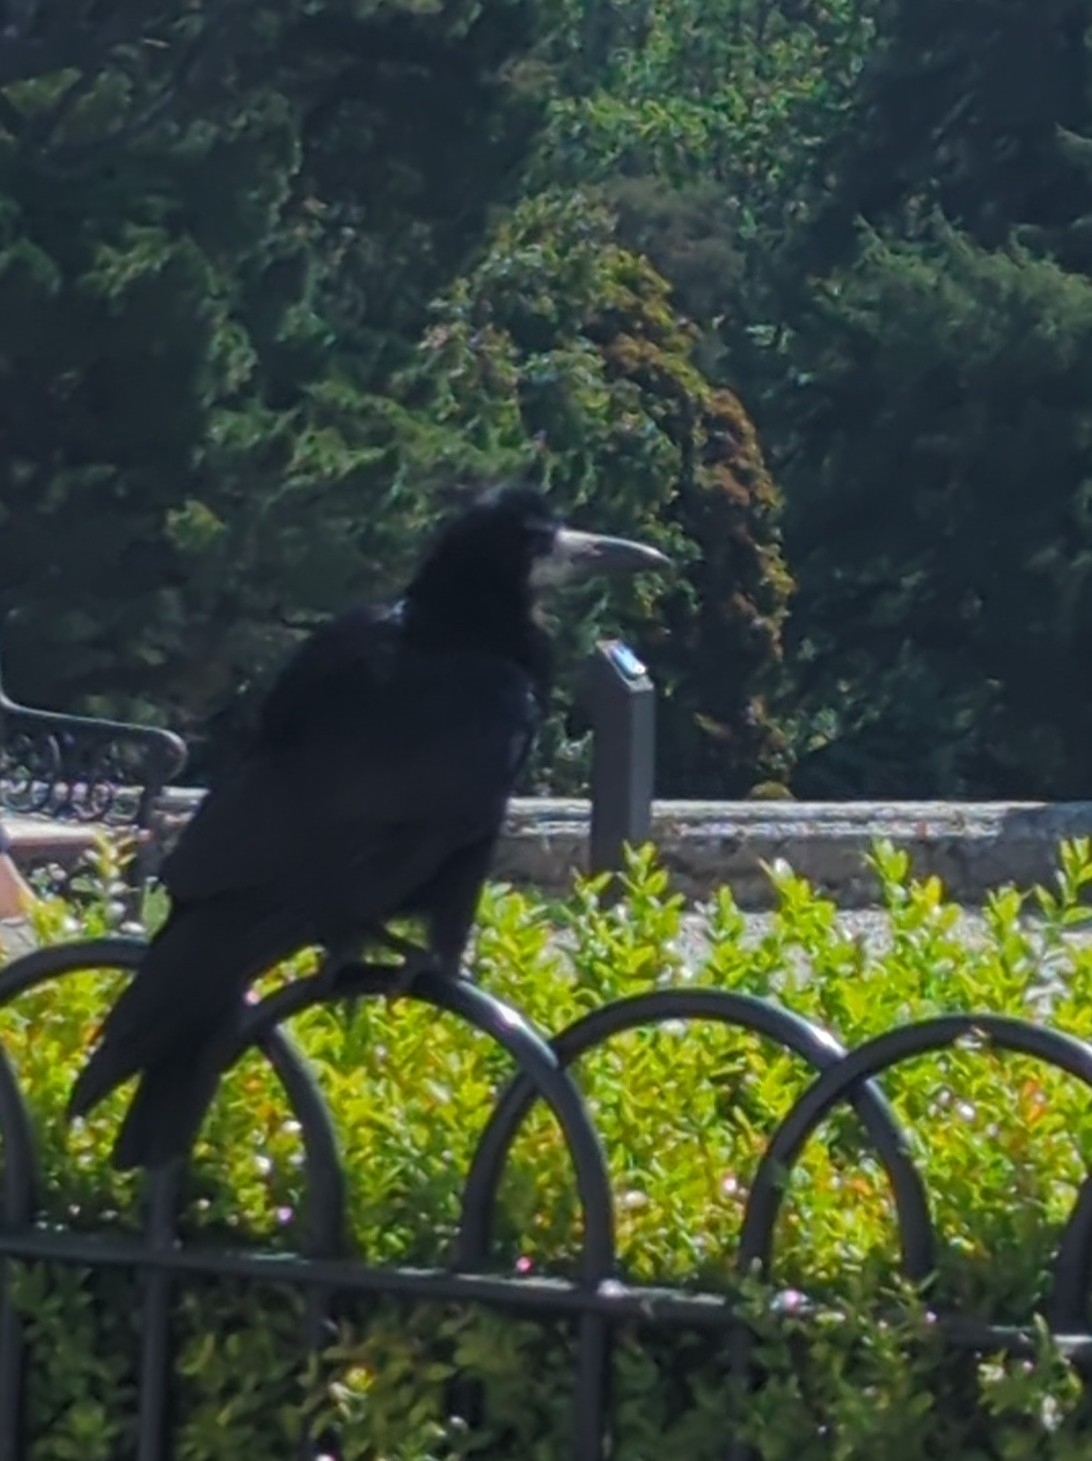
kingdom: Animalia
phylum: Chordata
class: Aves
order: Passeriformes
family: Corvidae
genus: Corvus
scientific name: Corvus frugilegus
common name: Rook
